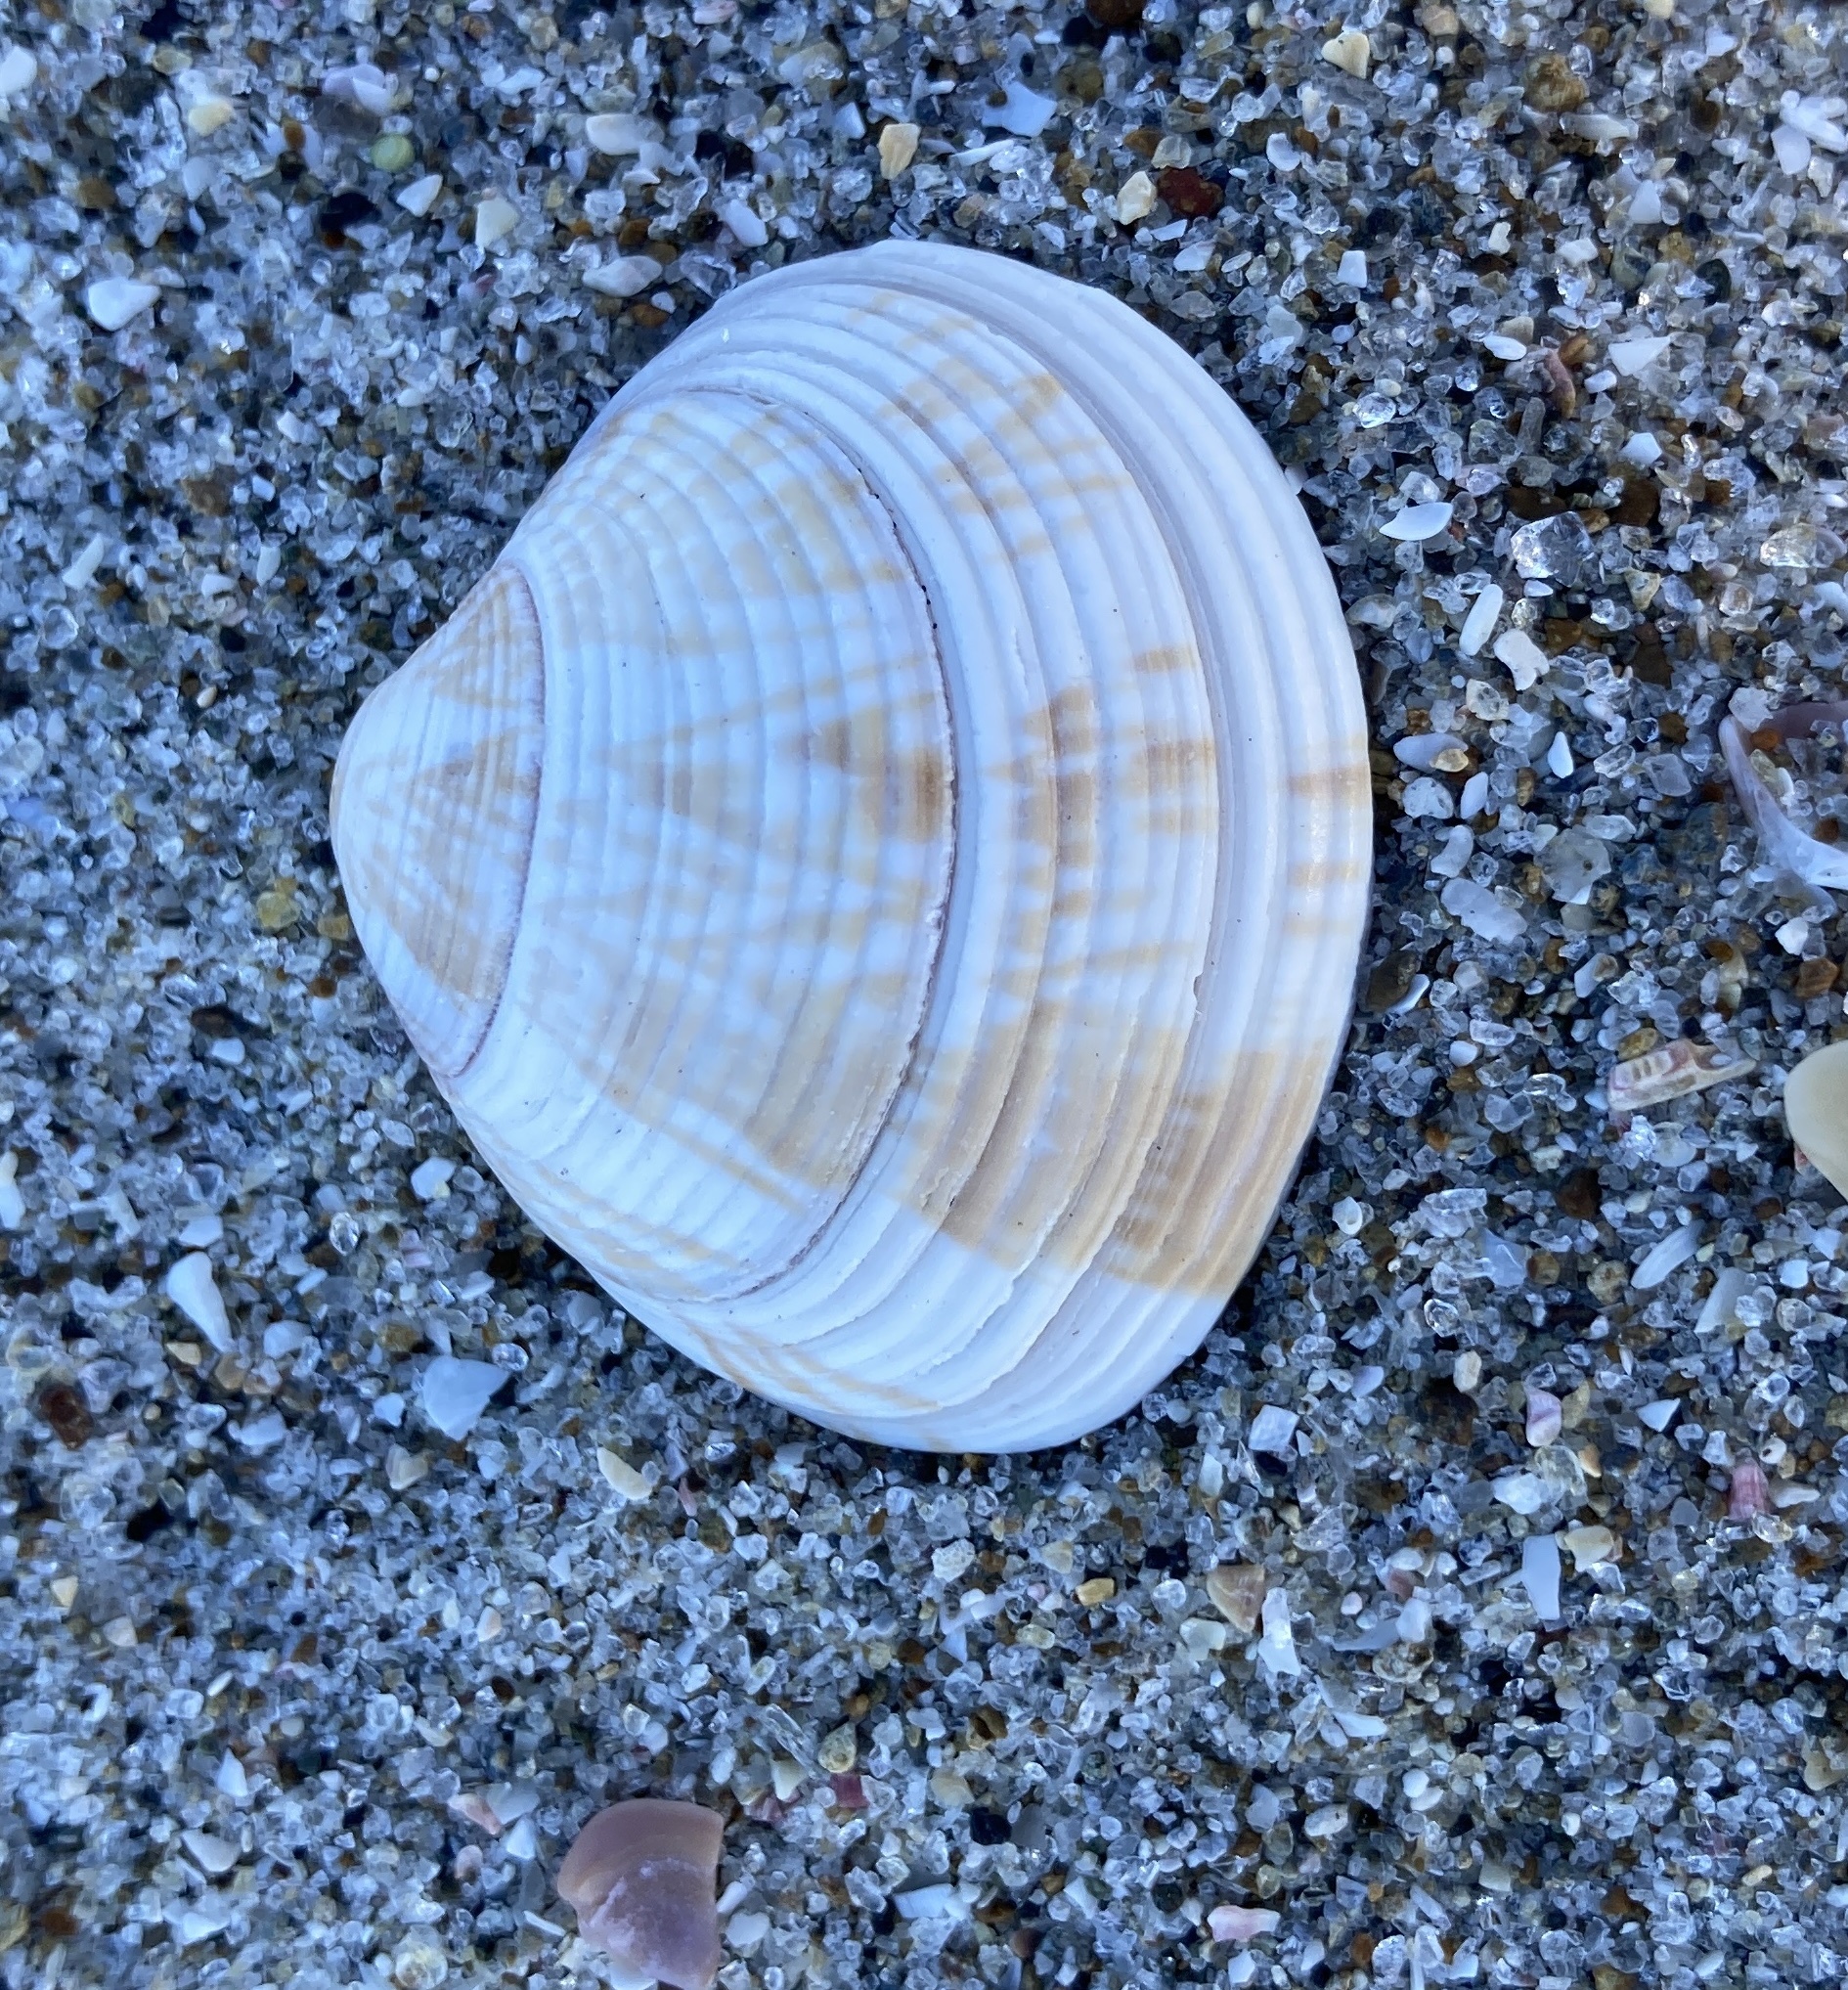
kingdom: Animalia
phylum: Mollusca
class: Bivalvia
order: Venerida
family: Veneridae
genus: Tawera
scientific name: Tawera spissa
